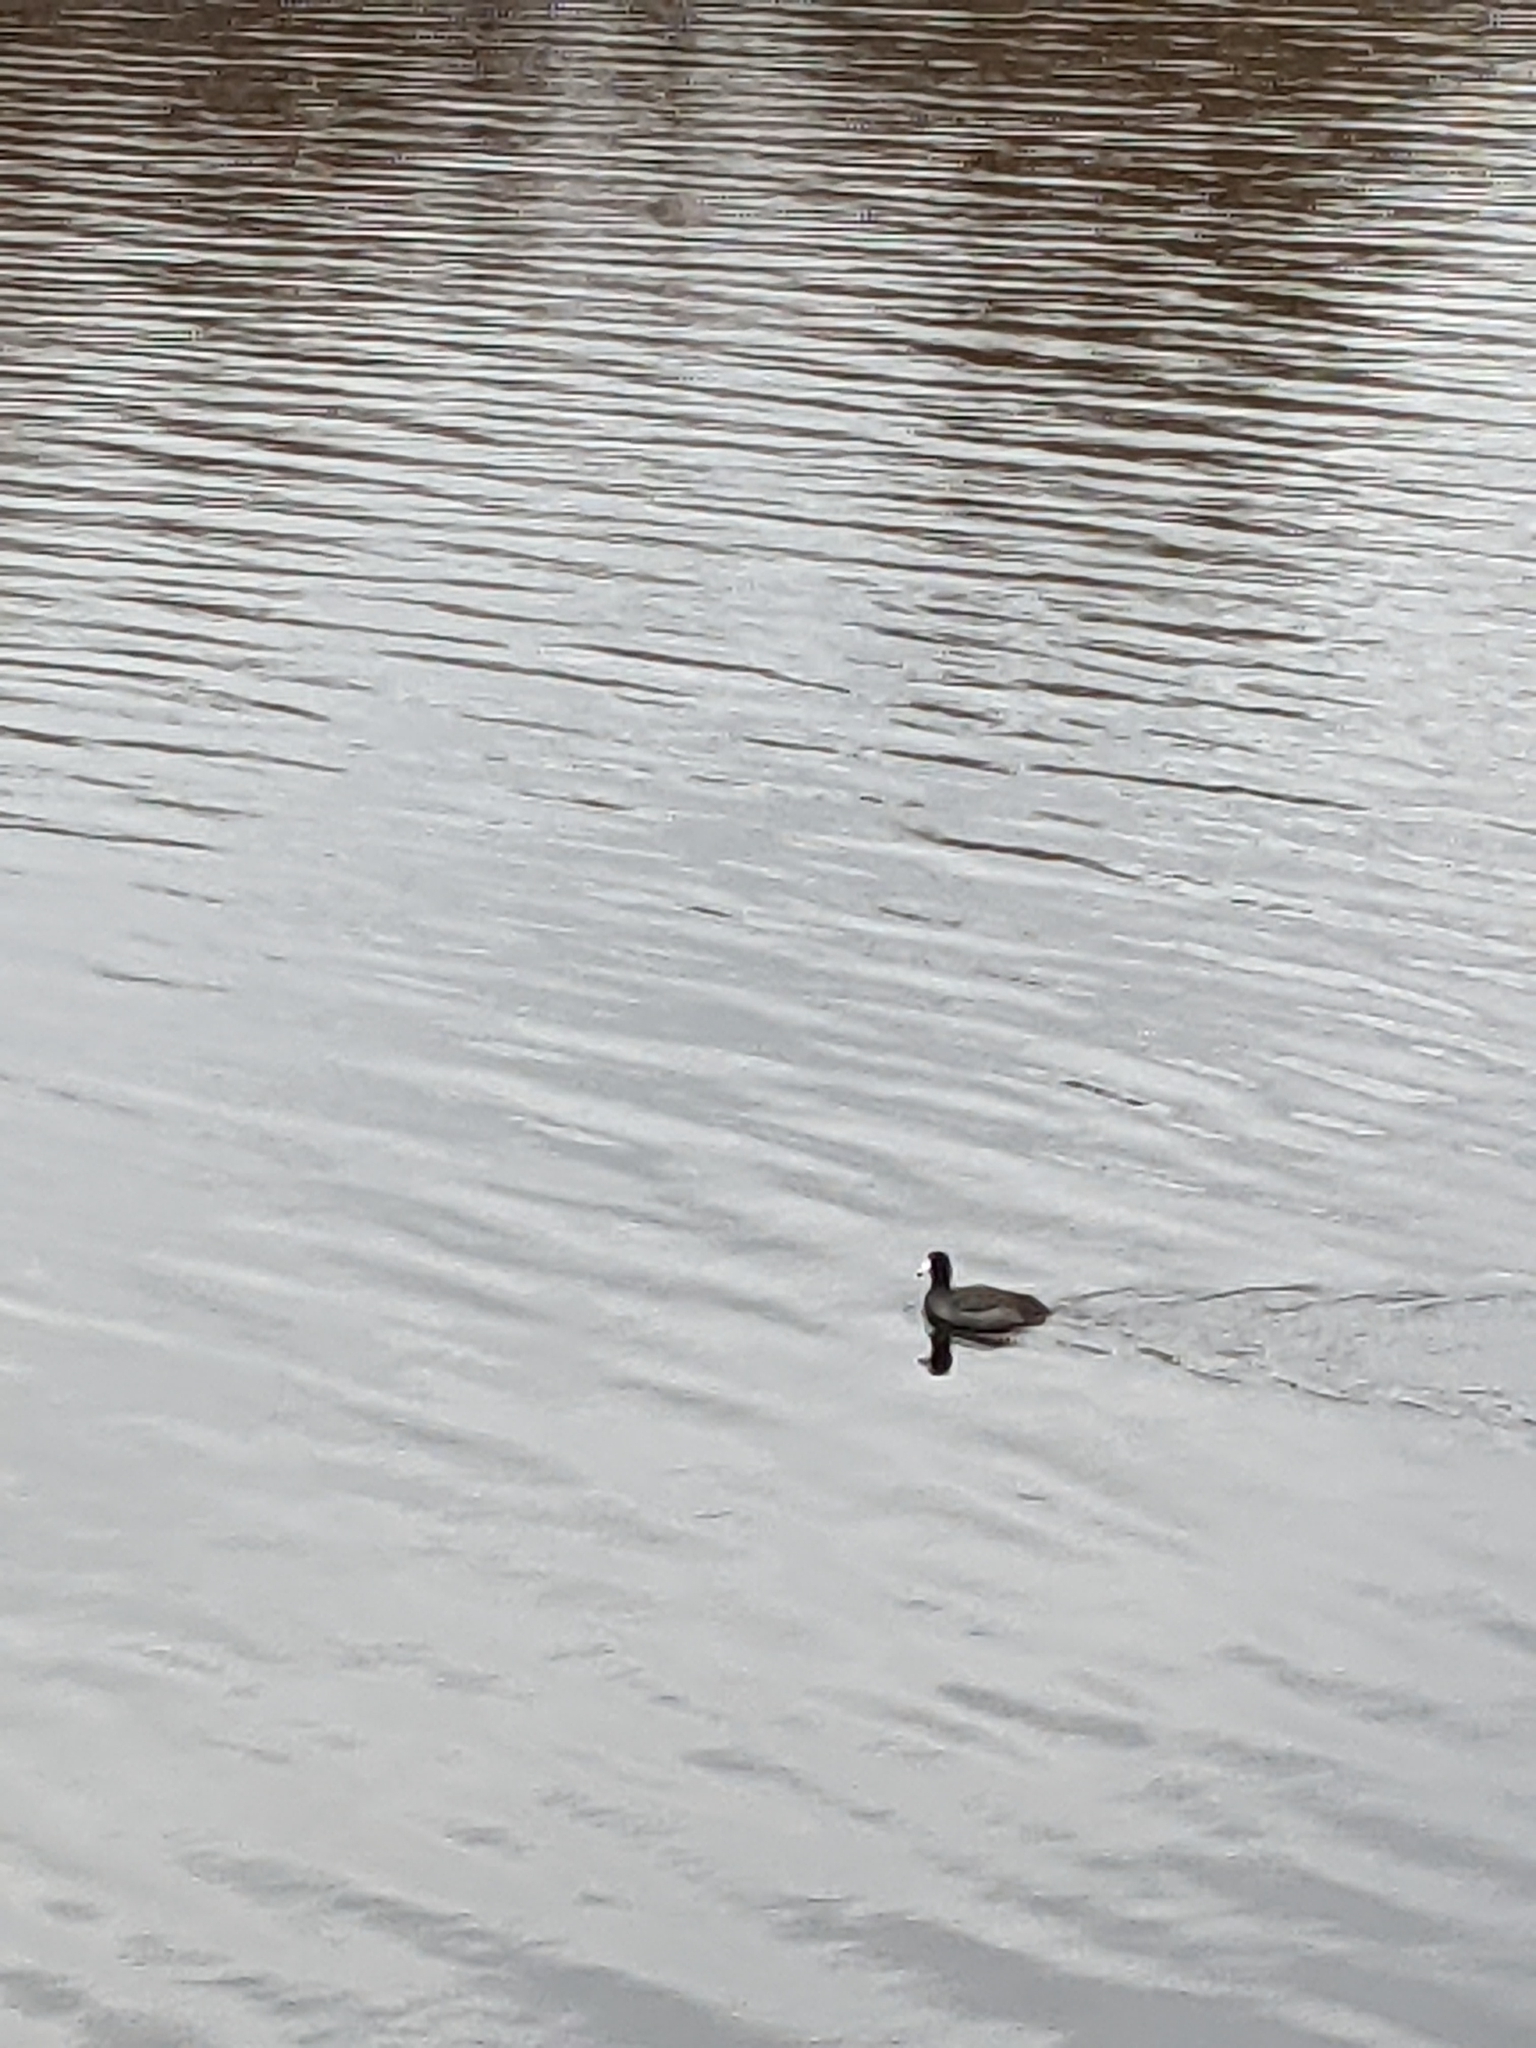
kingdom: Animalia
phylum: Chordata
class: Aves
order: Gruiformes
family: Rallidae
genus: Fulica
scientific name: Fulica americana
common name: American coot
